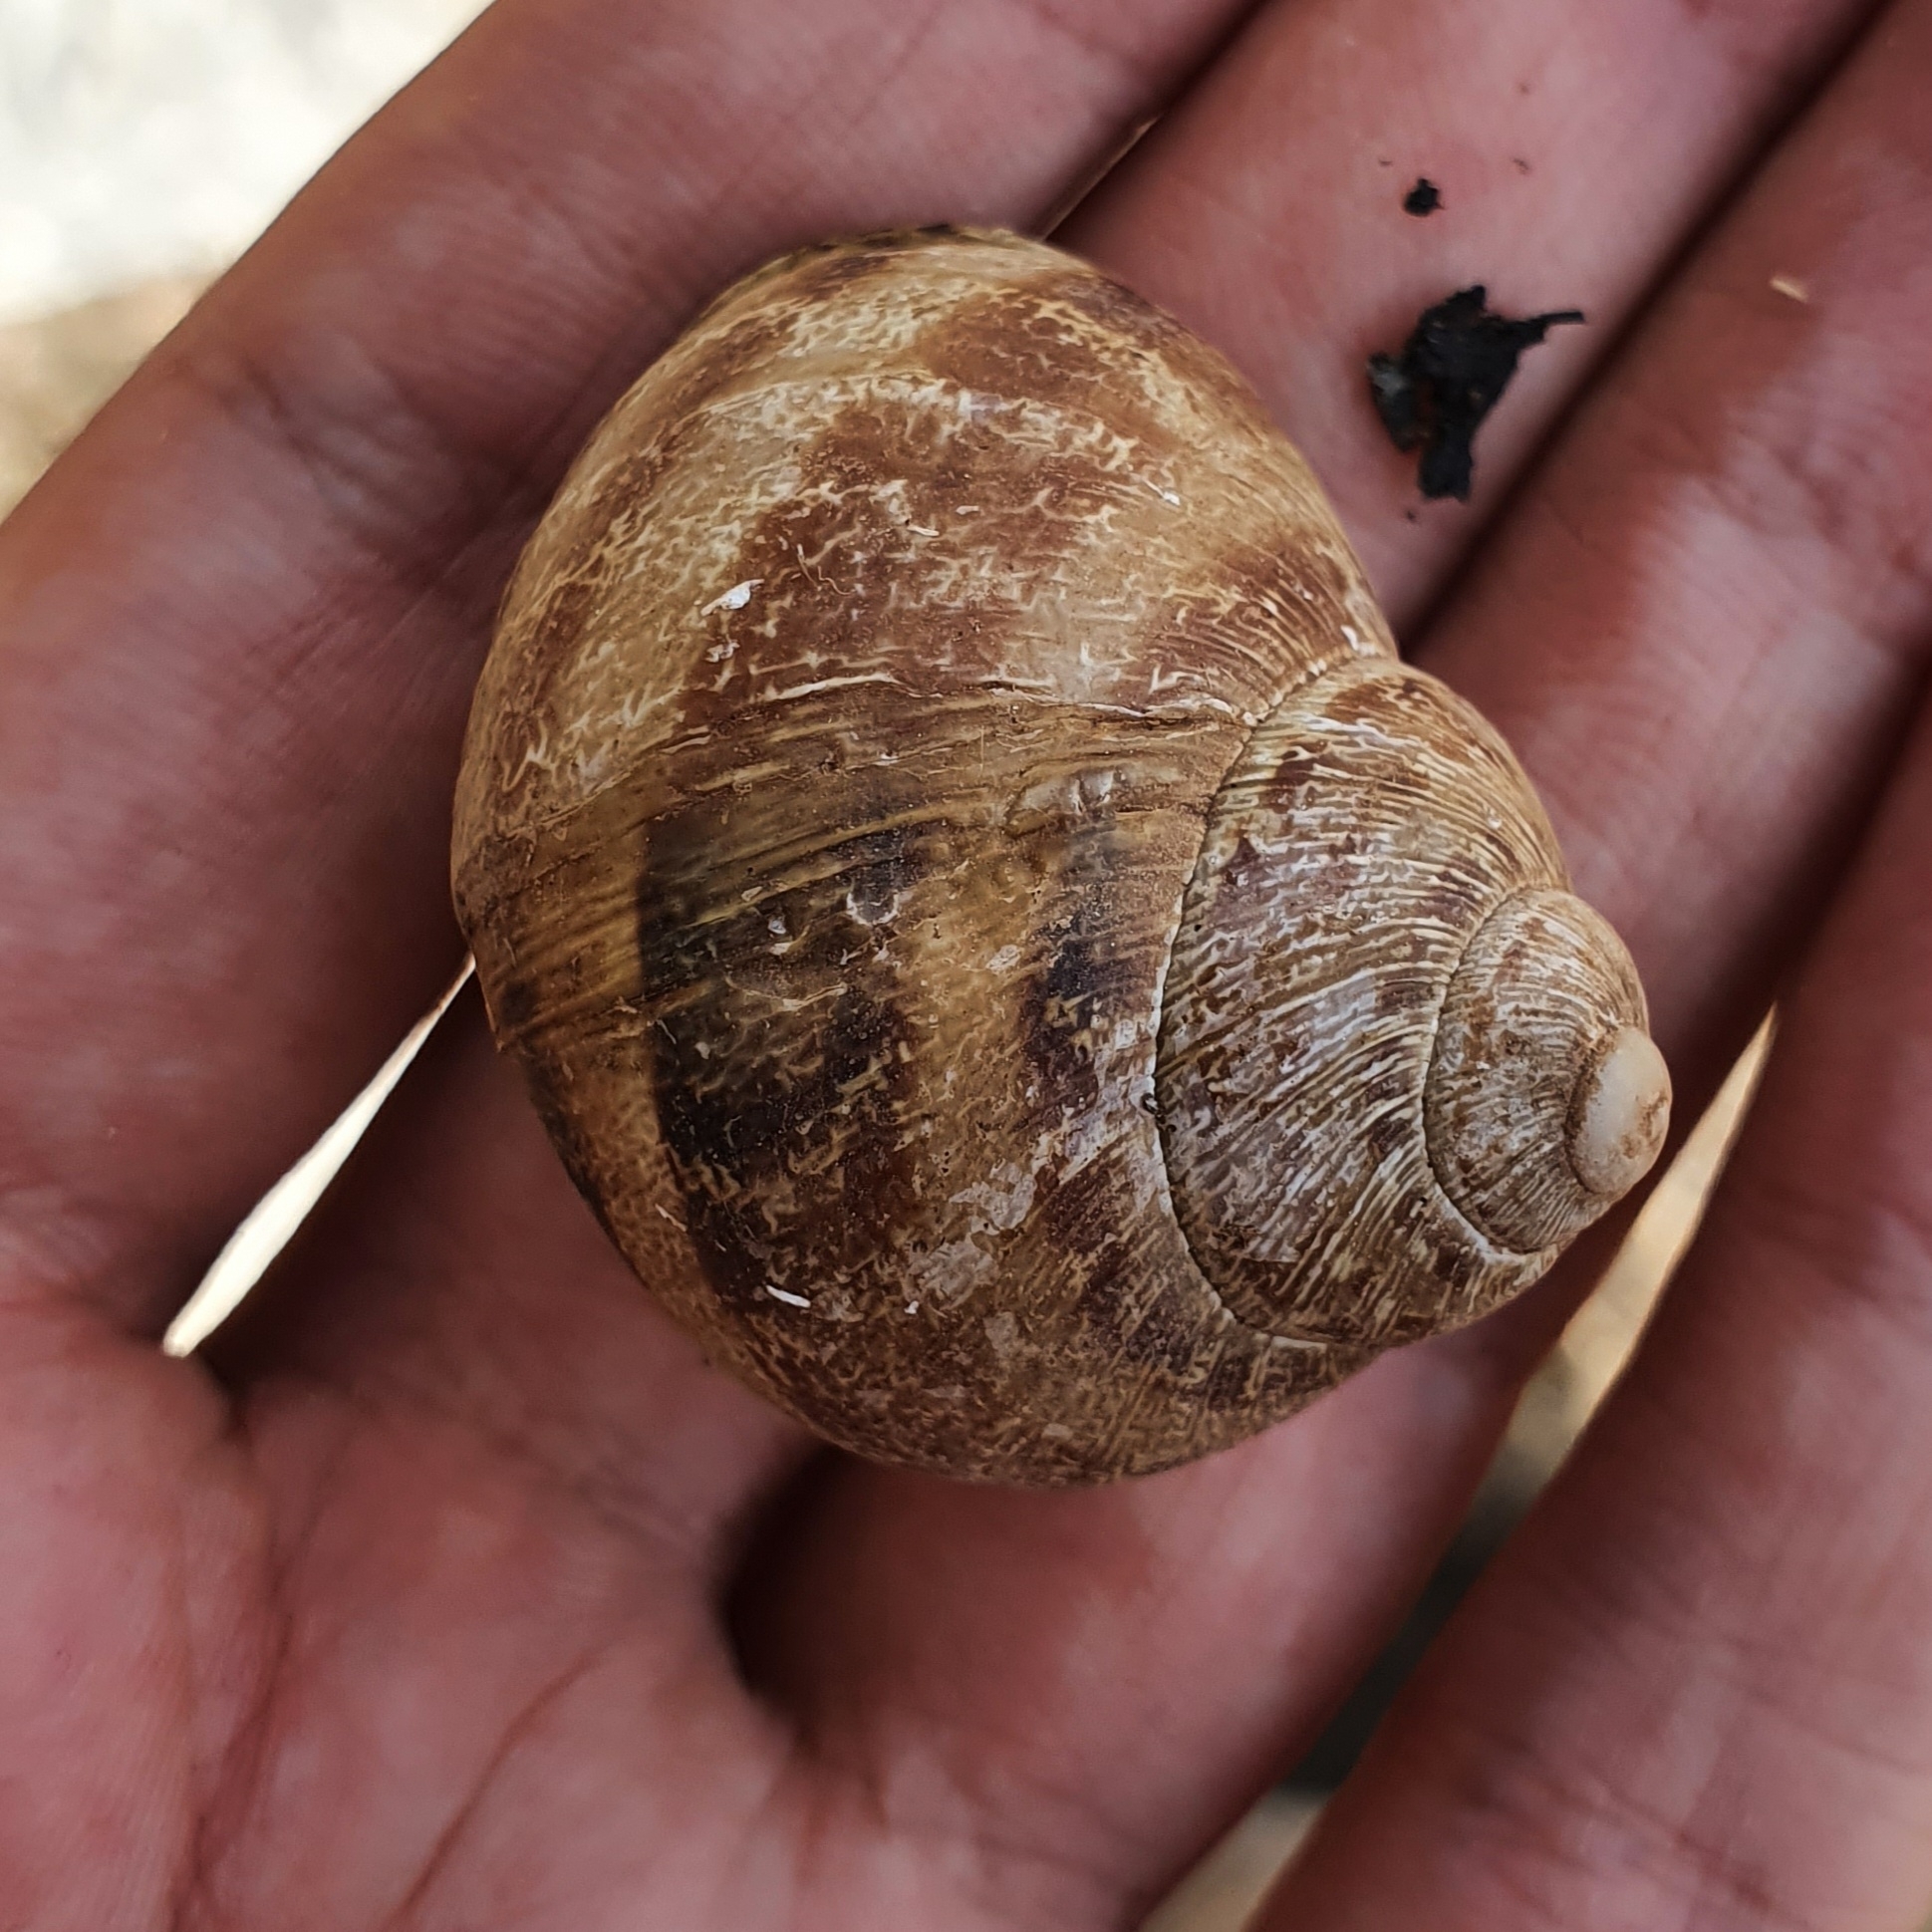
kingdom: Animalia
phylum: Mollusca
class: Gastropoda
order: Stylommatophora
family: Helicidae
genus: Cornu
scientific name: Cornu aspersum
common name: Brown garden snail
